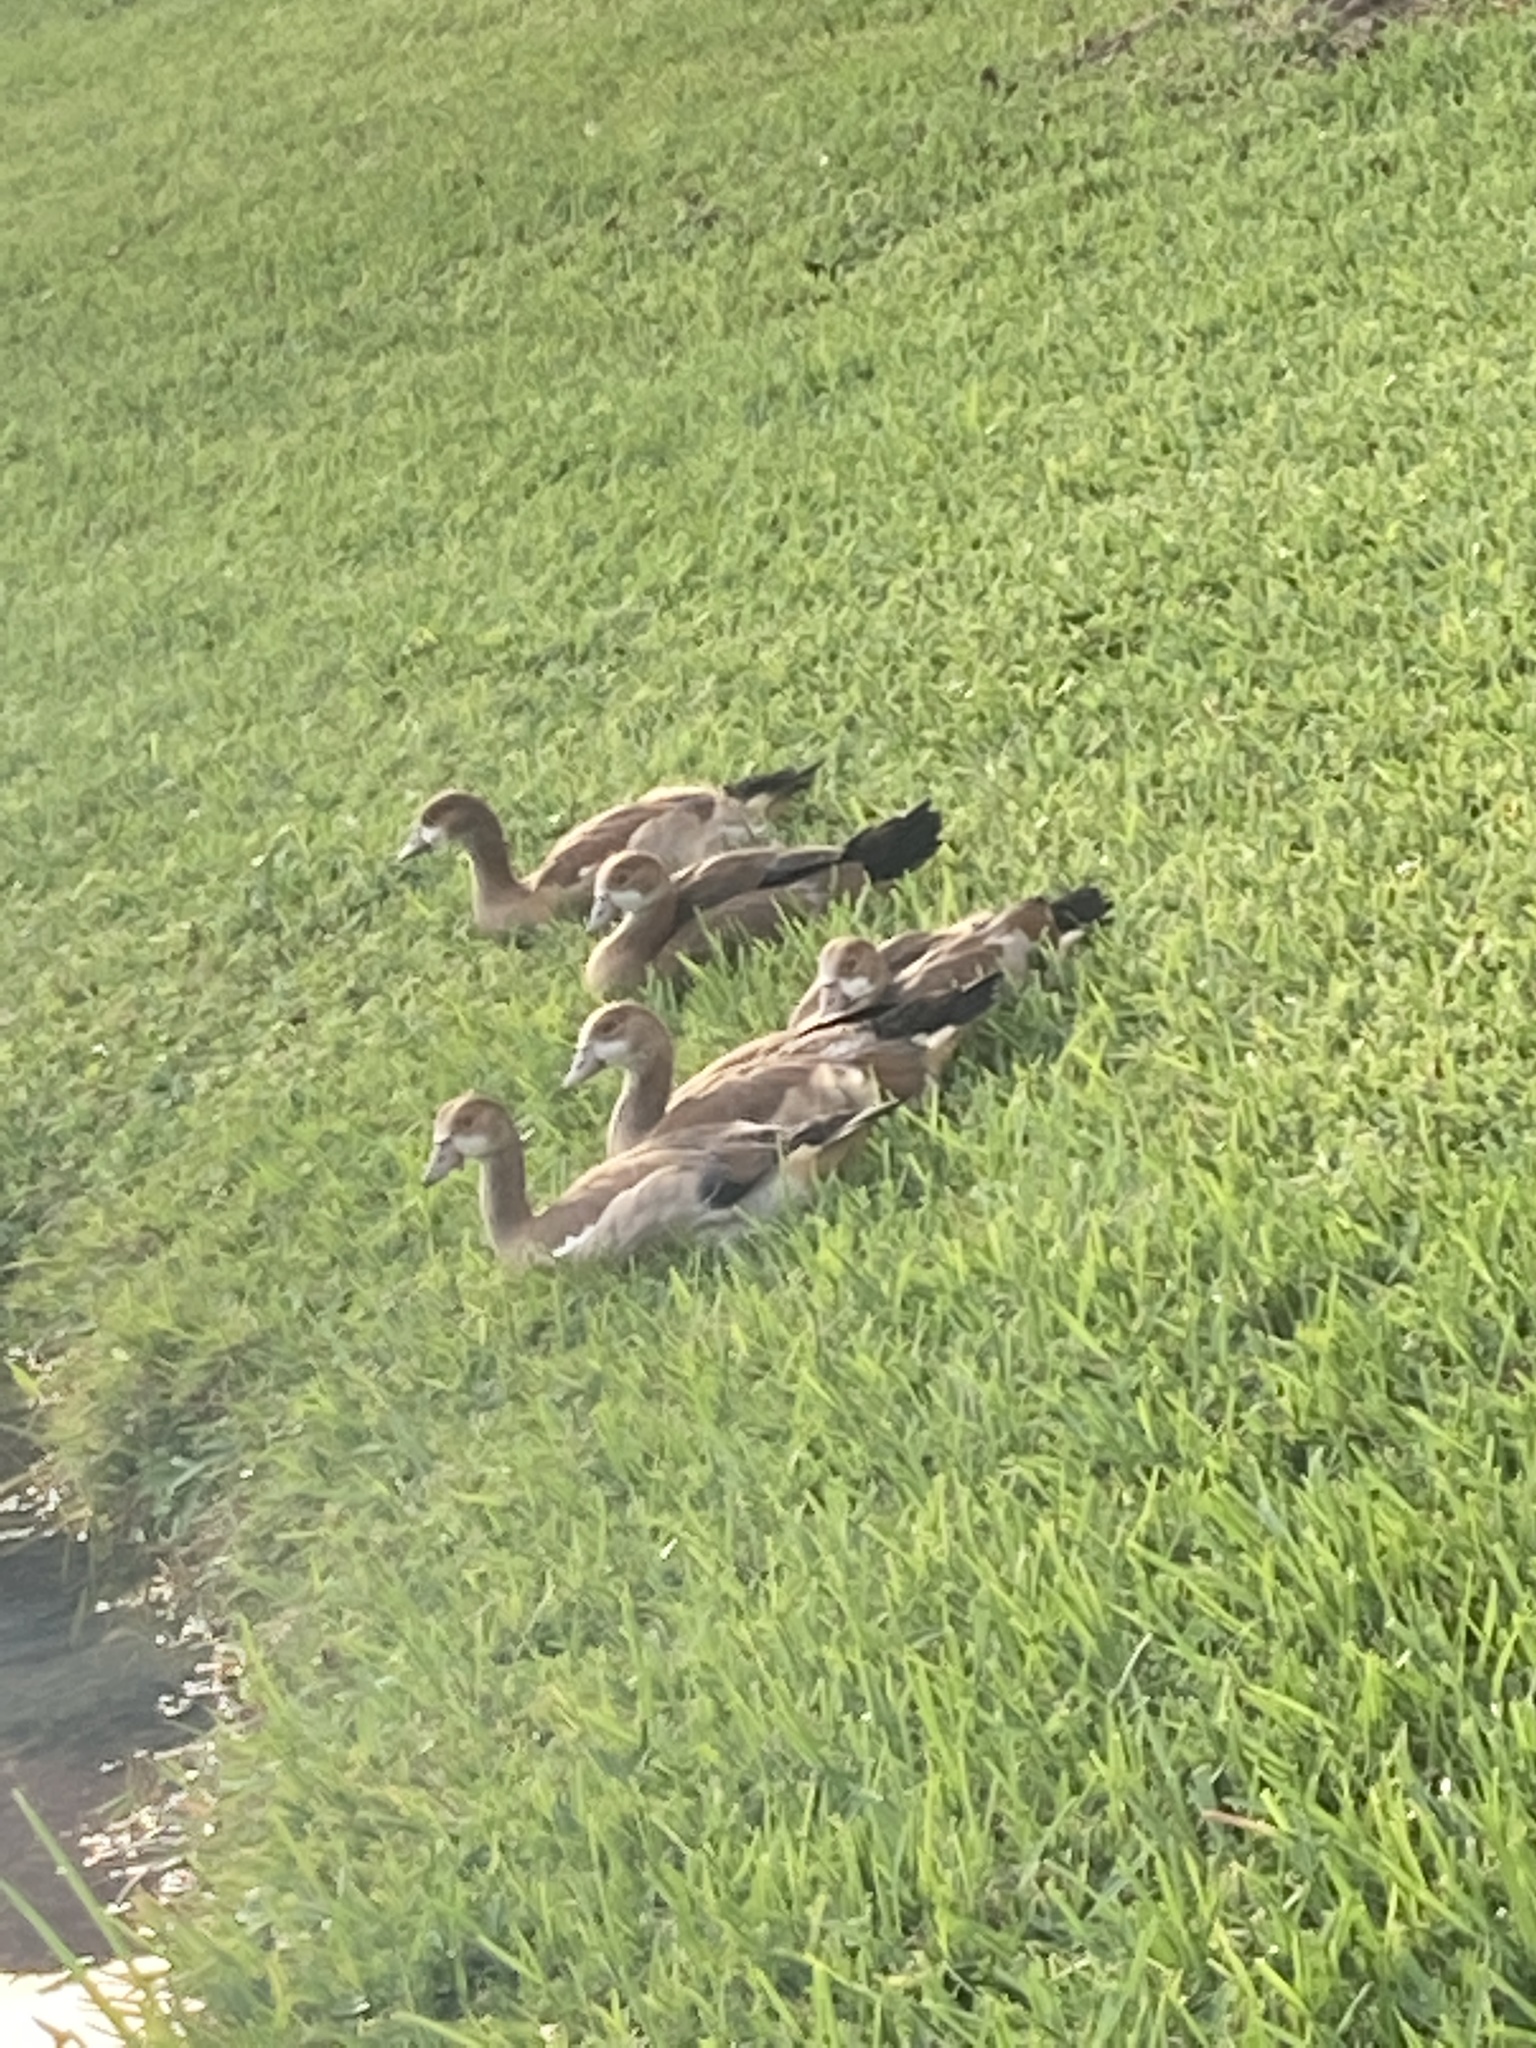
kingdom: Animalia
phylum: Chordata
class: Aves
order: Anseriformes
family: Anatidae
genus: Alopochen
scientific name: Alopochen aegyptiaca
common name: Egyptian goose
